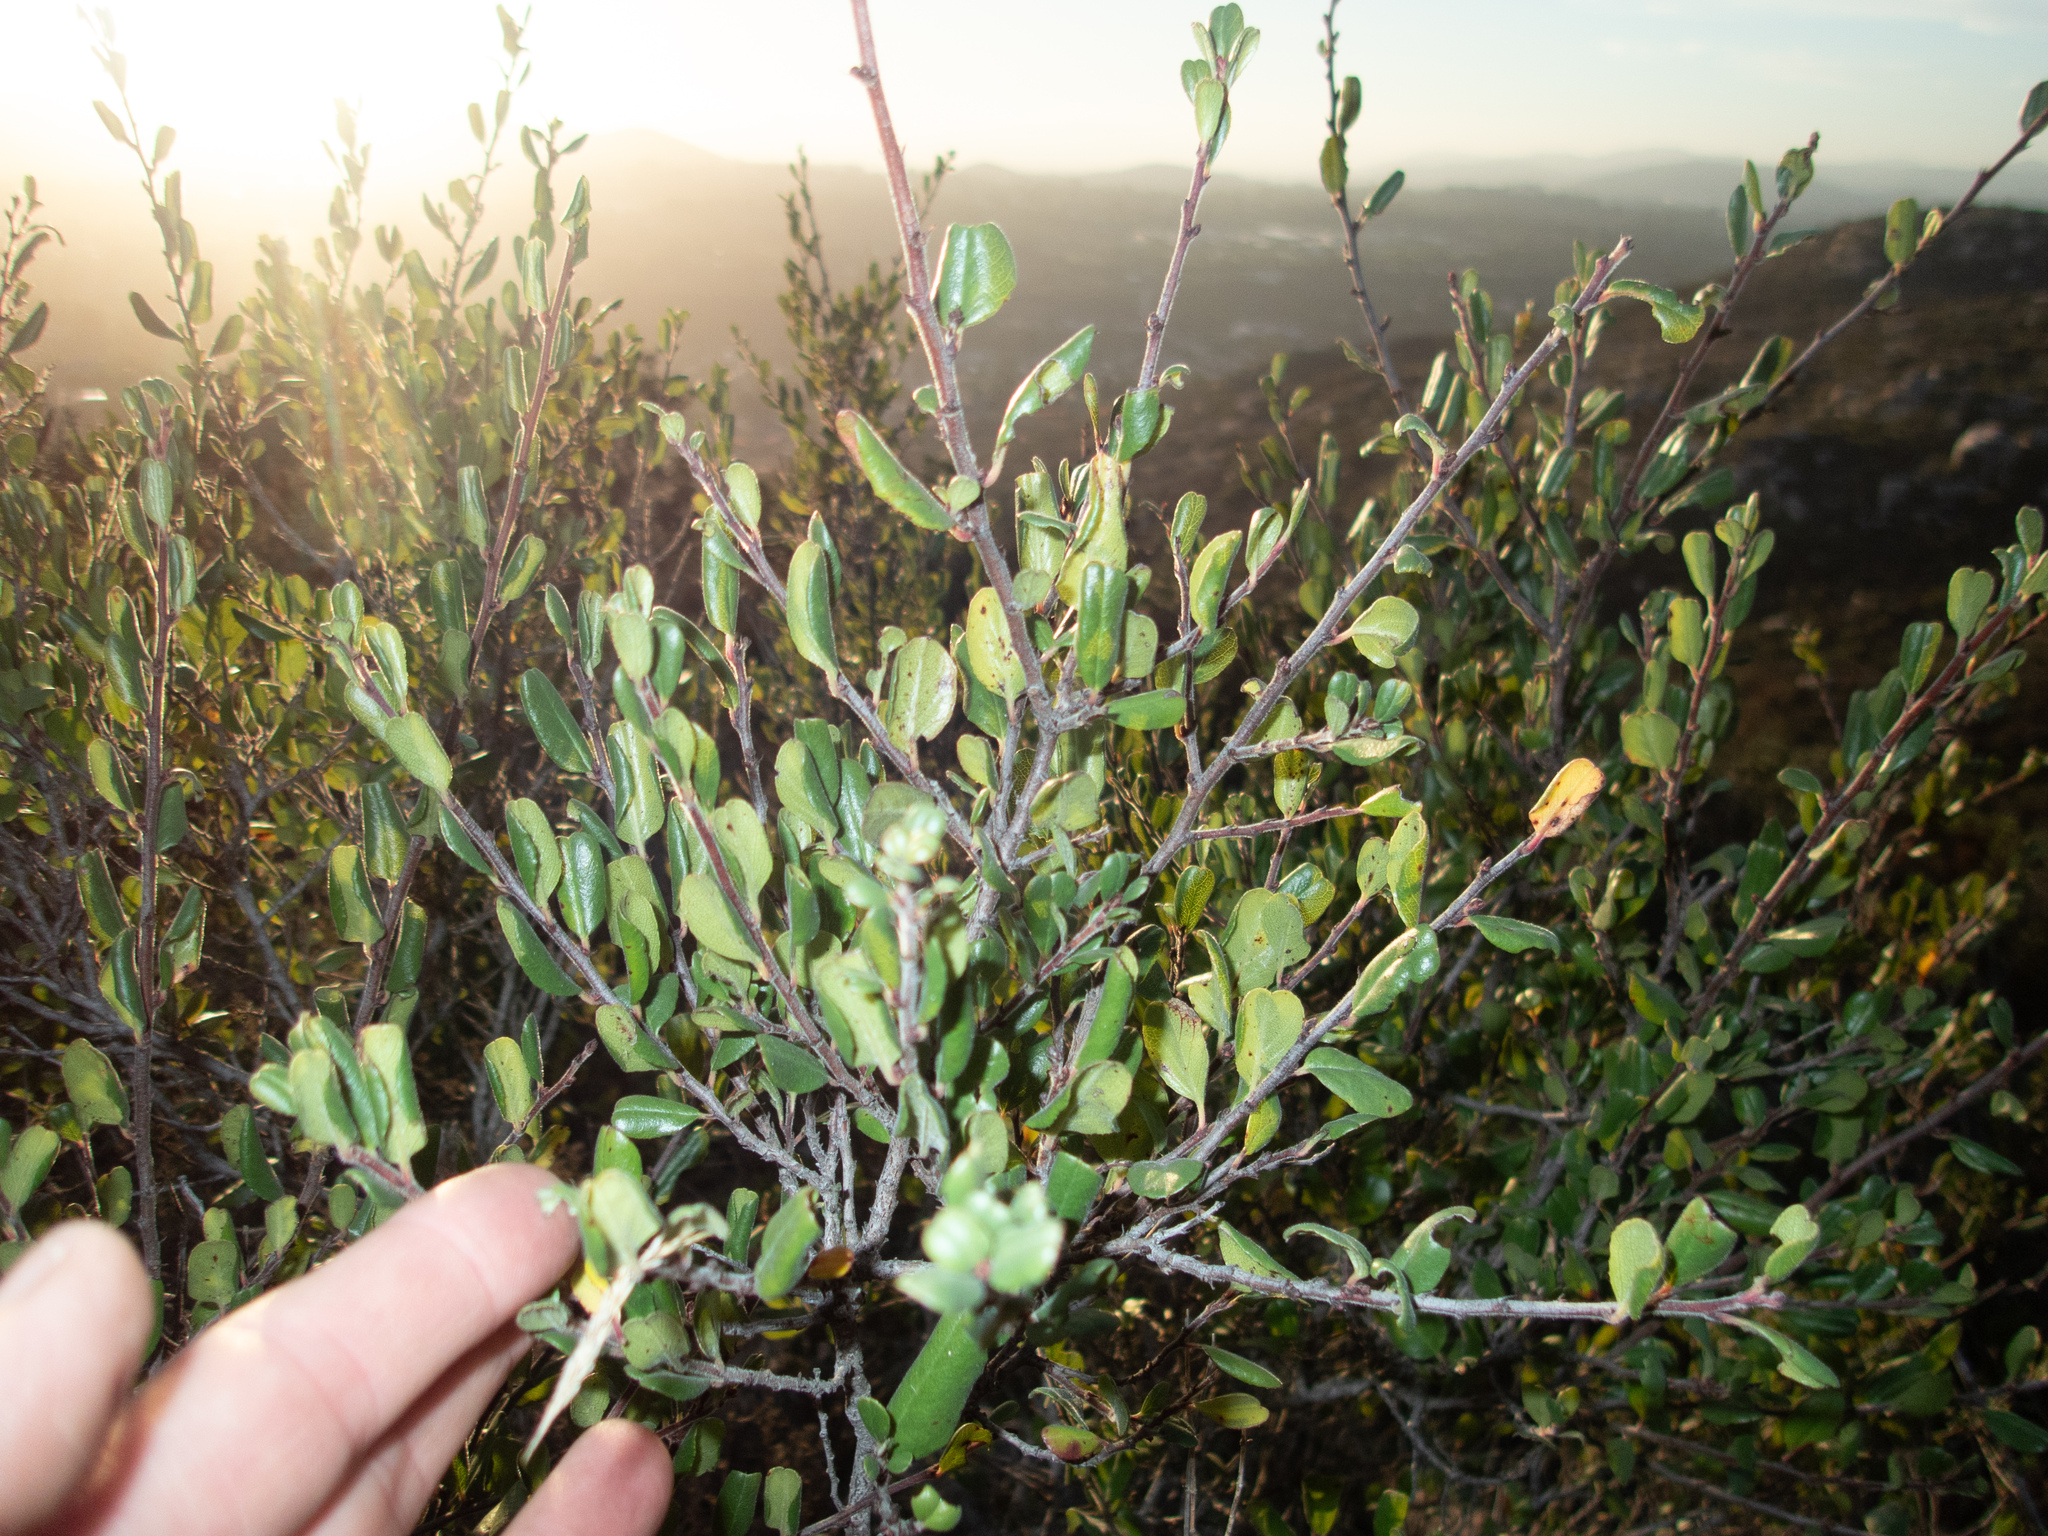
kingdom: Plantae
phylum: Tracheophyta
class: Magnoliopsida
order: Rosales
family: Rhamnaceae
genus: Endotropis
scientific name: Endotropis crocea
